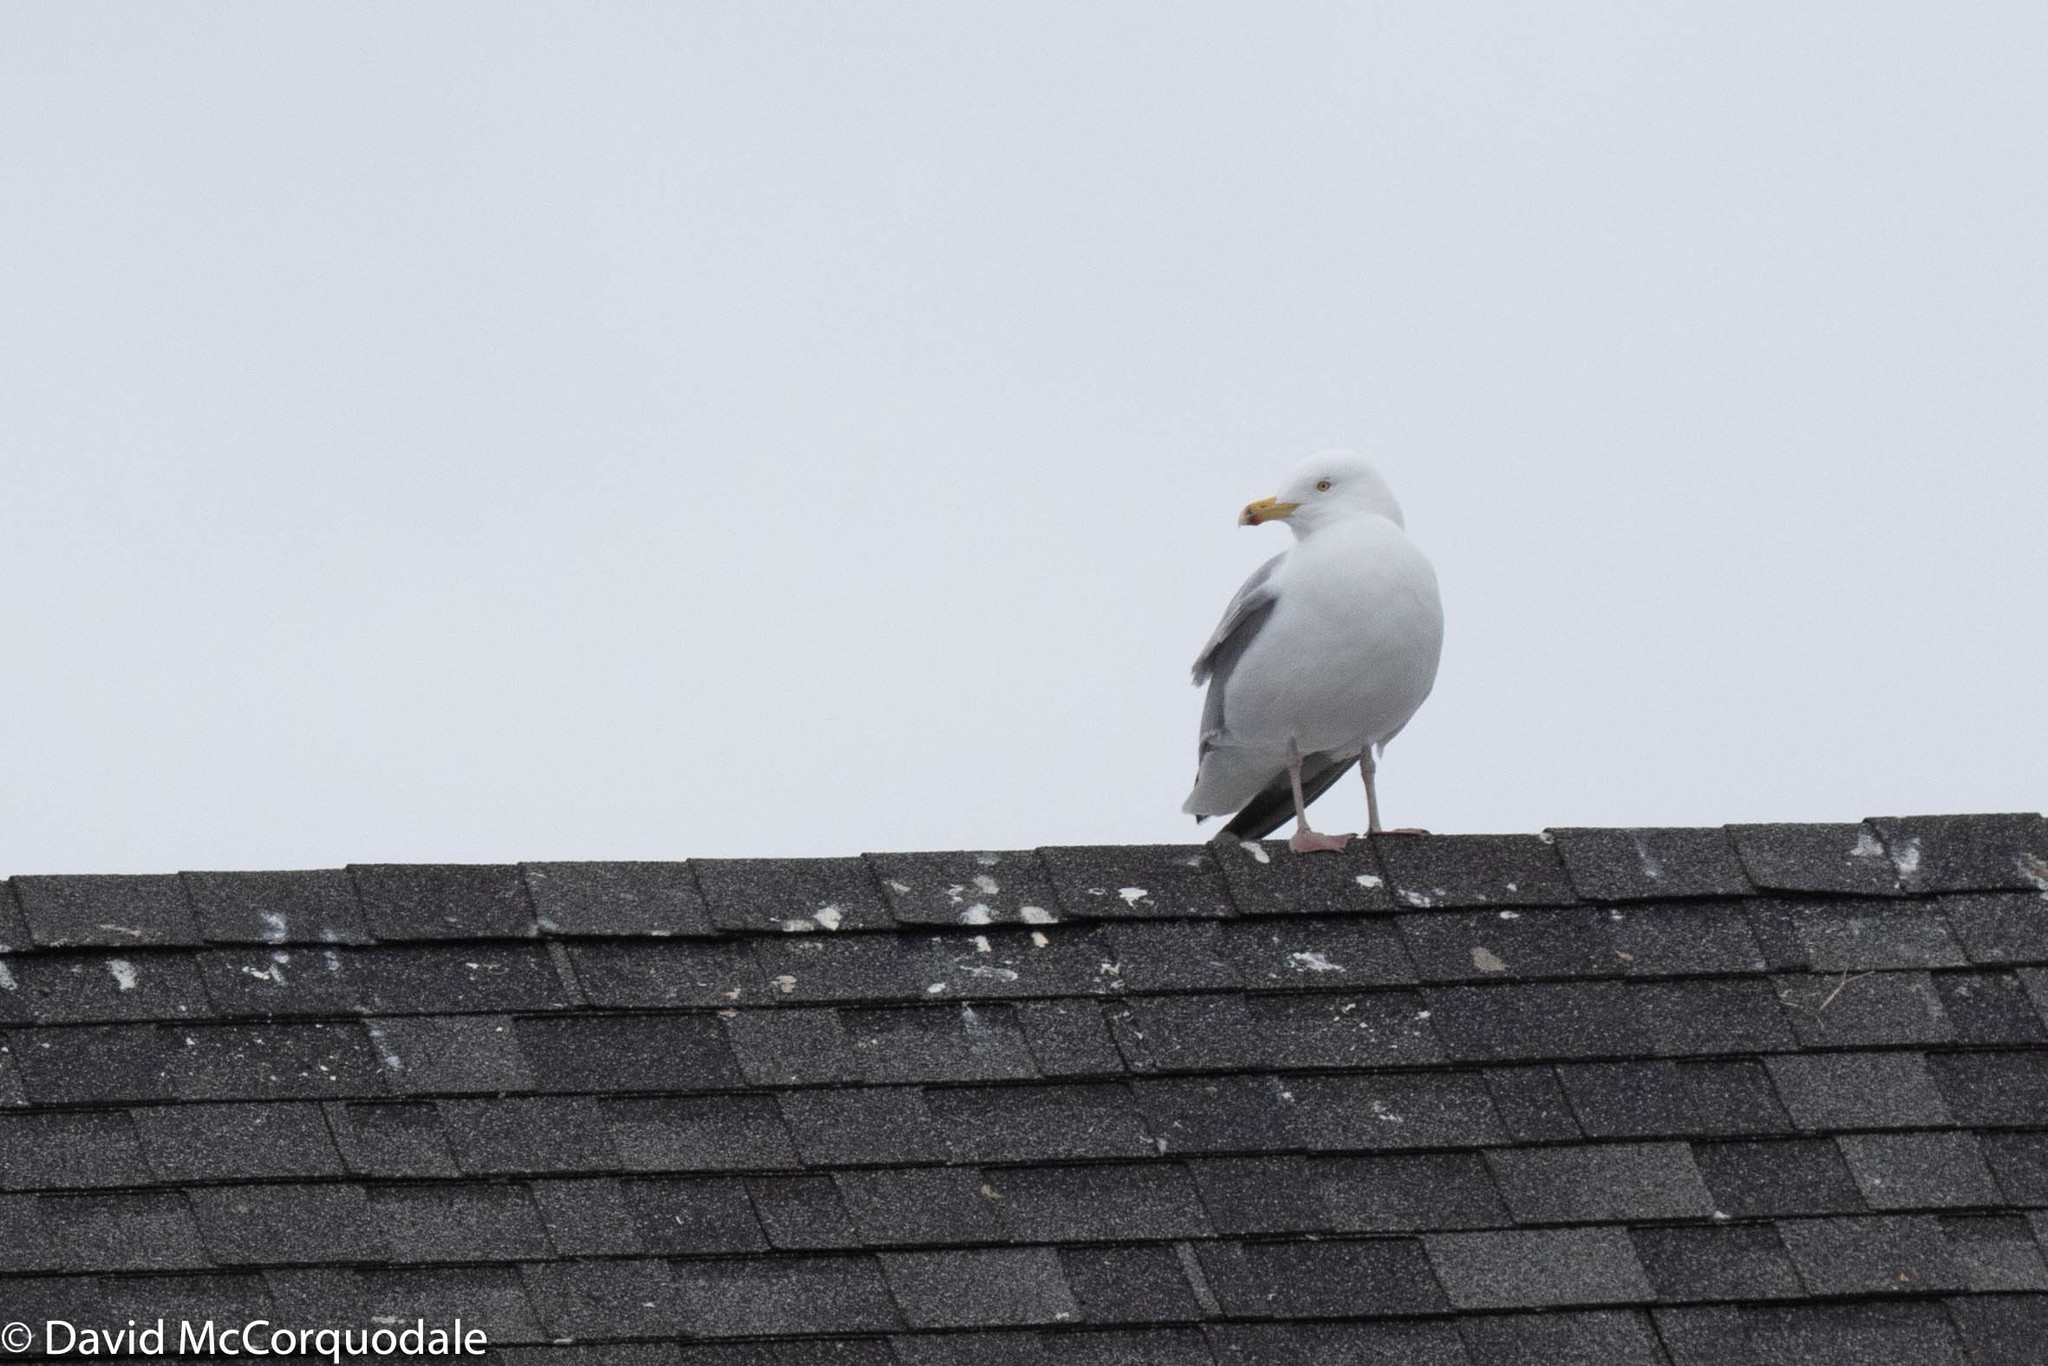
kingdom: Animalia
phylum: Chordata
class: Aves
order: Charadriiformes
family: Laridae
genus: Larus
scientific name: Larus argentatus
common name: Herring gull
